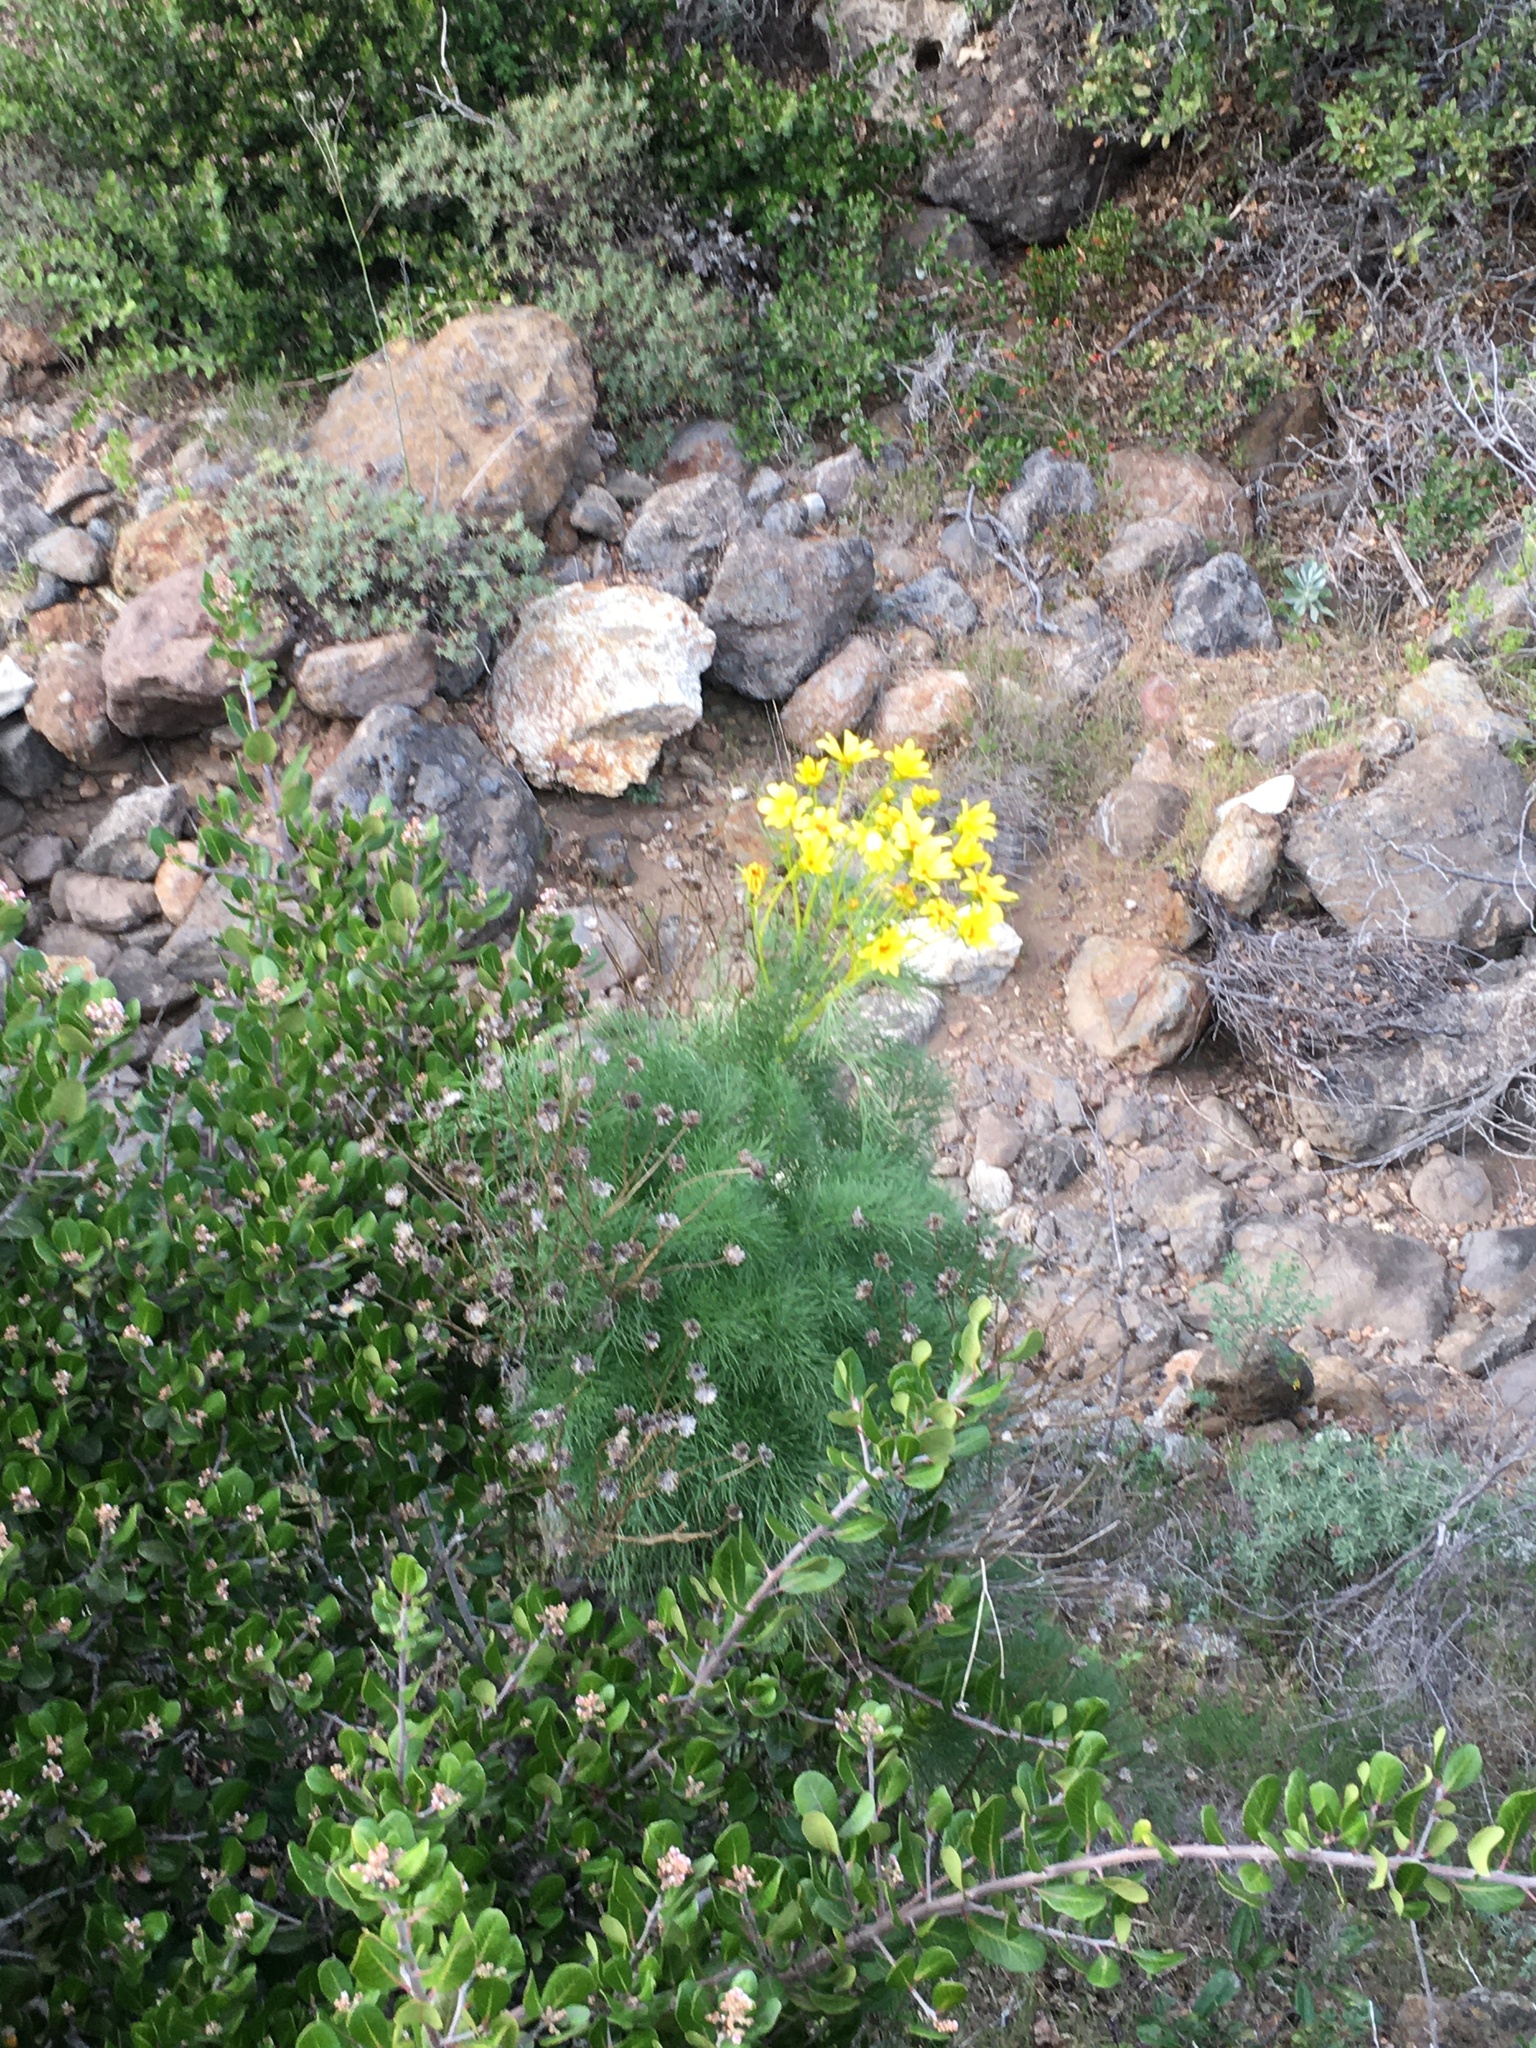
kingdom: Plantae
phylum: Tracheophyta
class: Magnoliopsida
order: Sapindales
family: Anacardiaceae
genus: Rhus
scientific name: Rhus integrifolia
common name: Lemonade sumac
